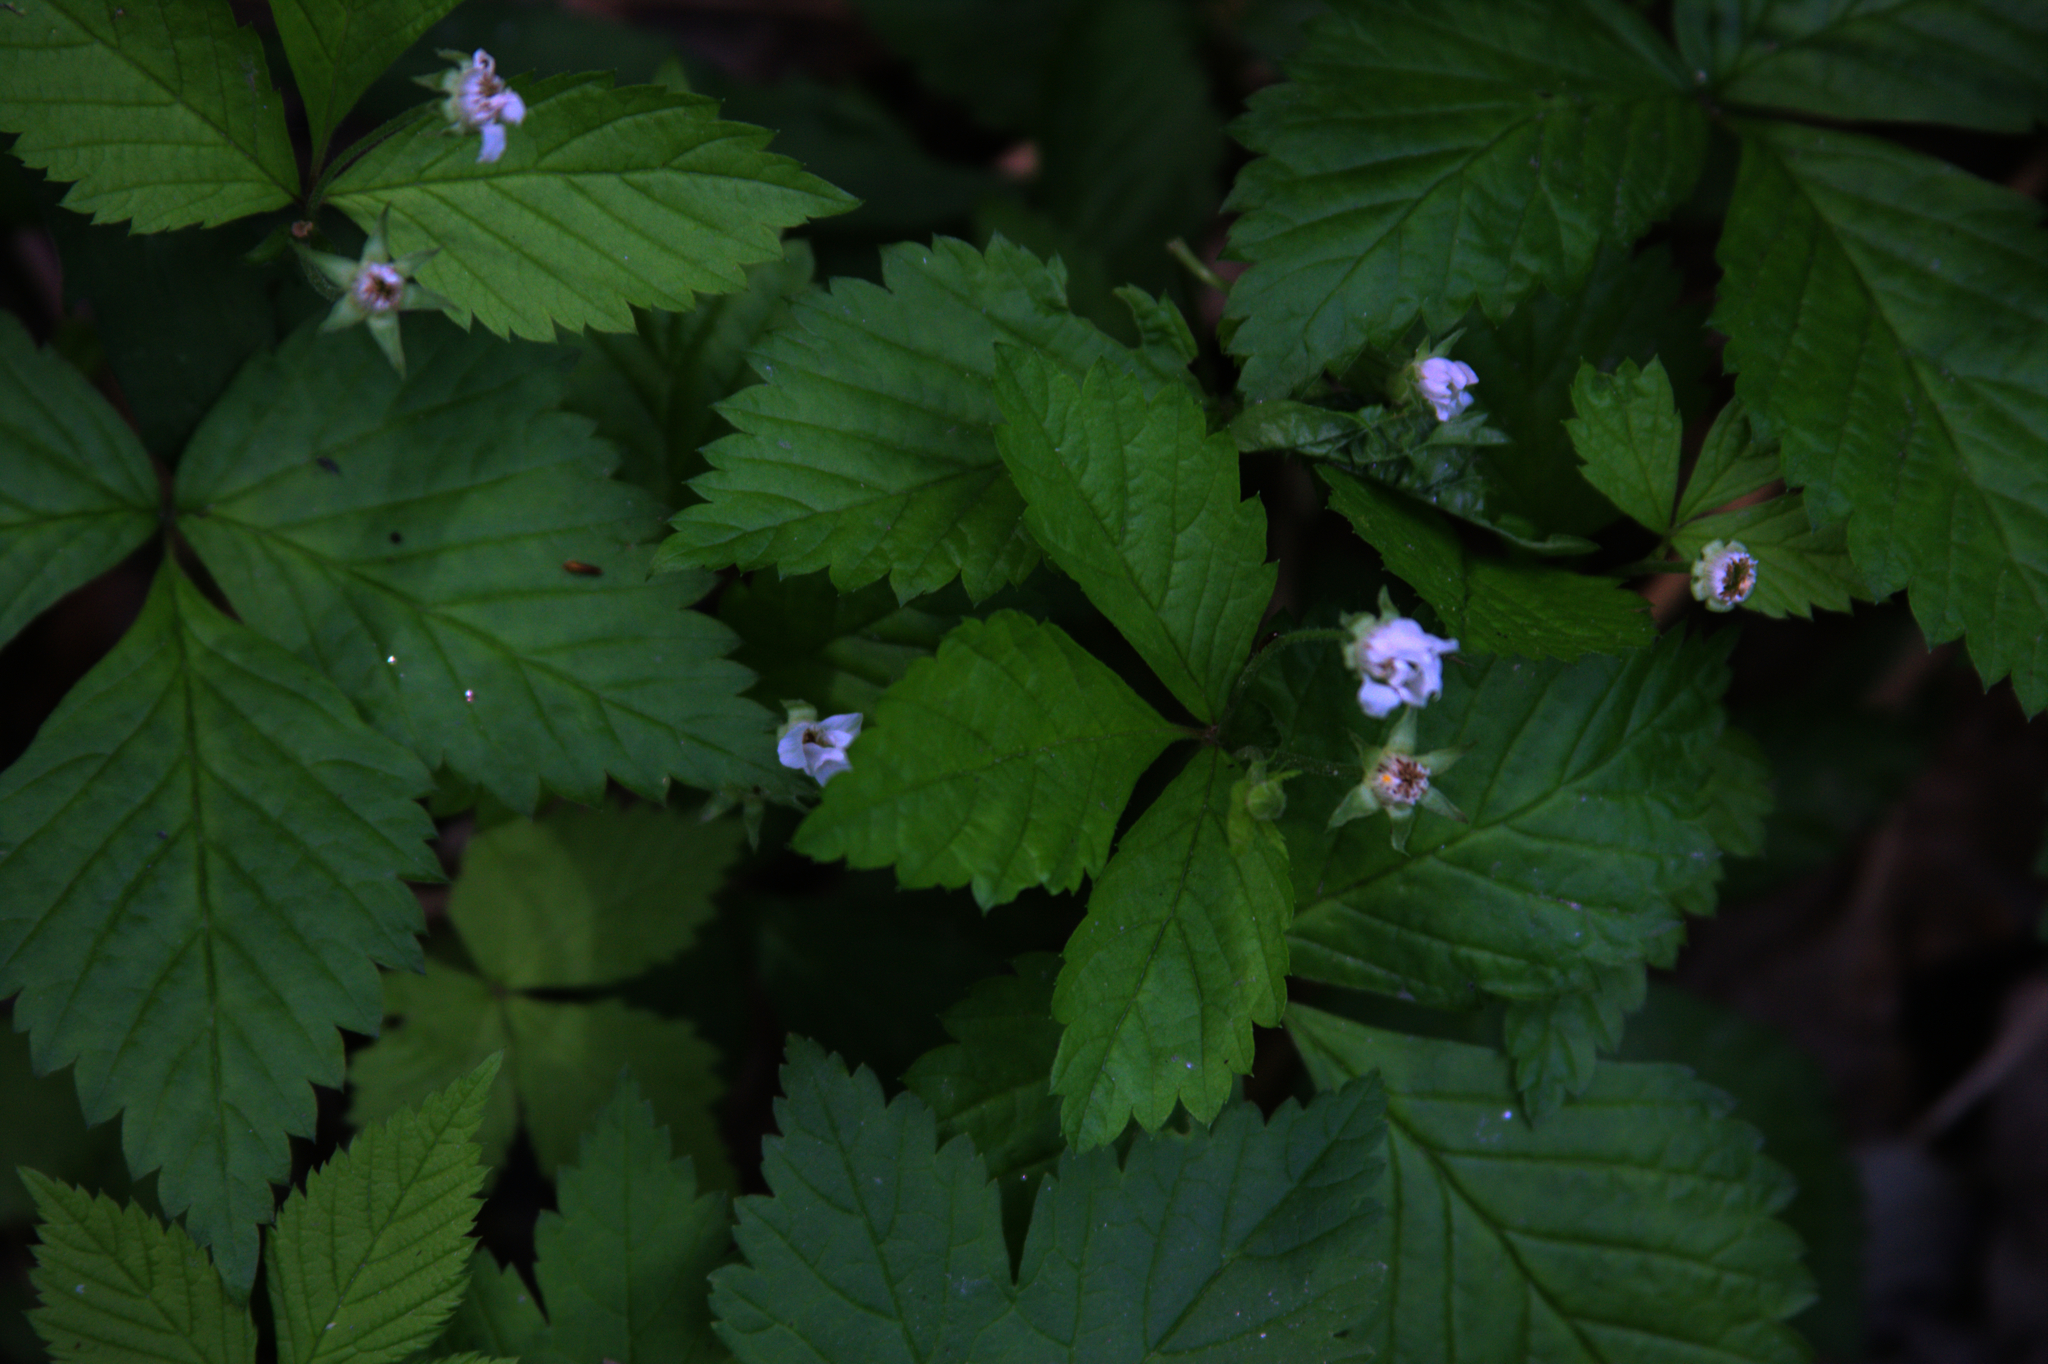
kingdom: Plantae
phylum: Tracheophyta
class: Magnoliopsida
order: Rosales
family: Rosaceae
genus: Rubus
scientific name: Rubus pubescens
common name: Dwarf raspberry
